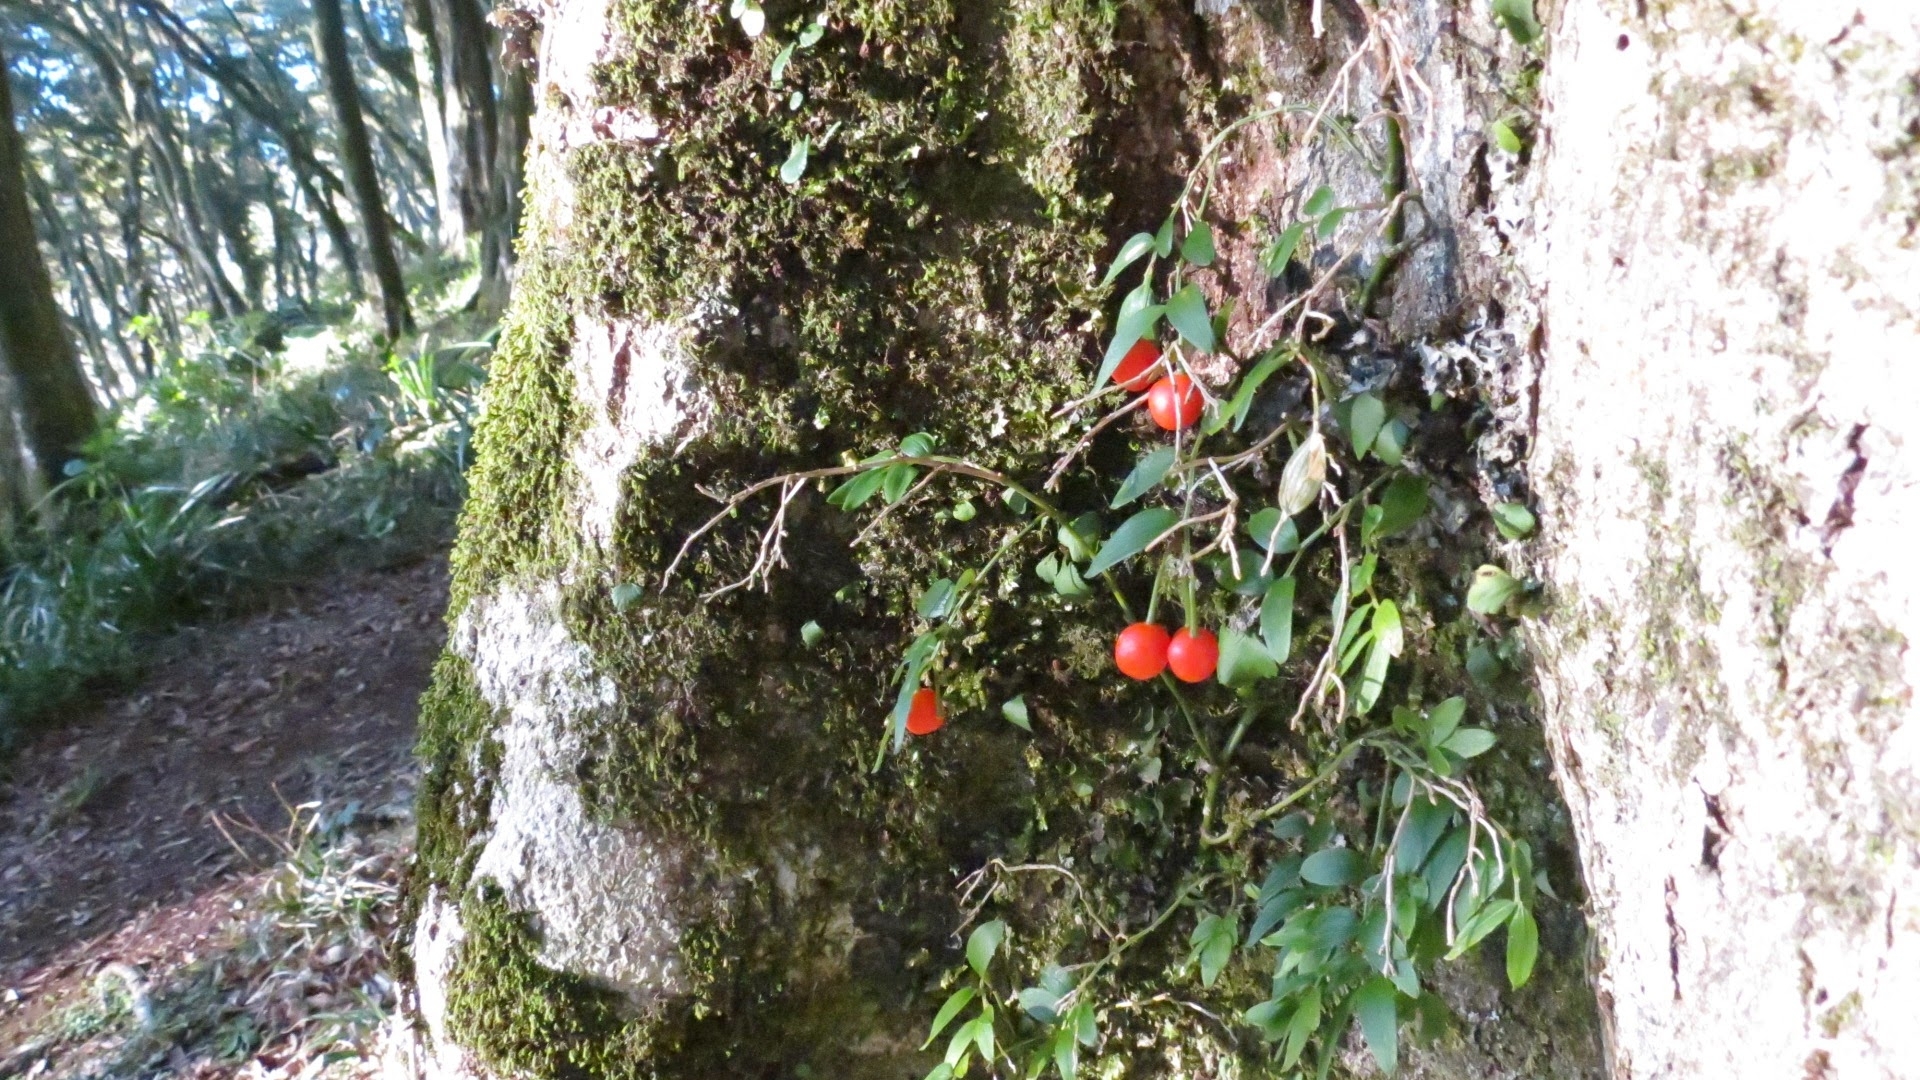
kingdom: Plantae
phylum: Tracheophyta
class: Liliopsida
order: Liliales
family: Alstroemeriaceae
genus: Luzuriaga
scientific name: Luzuriaga radicans
